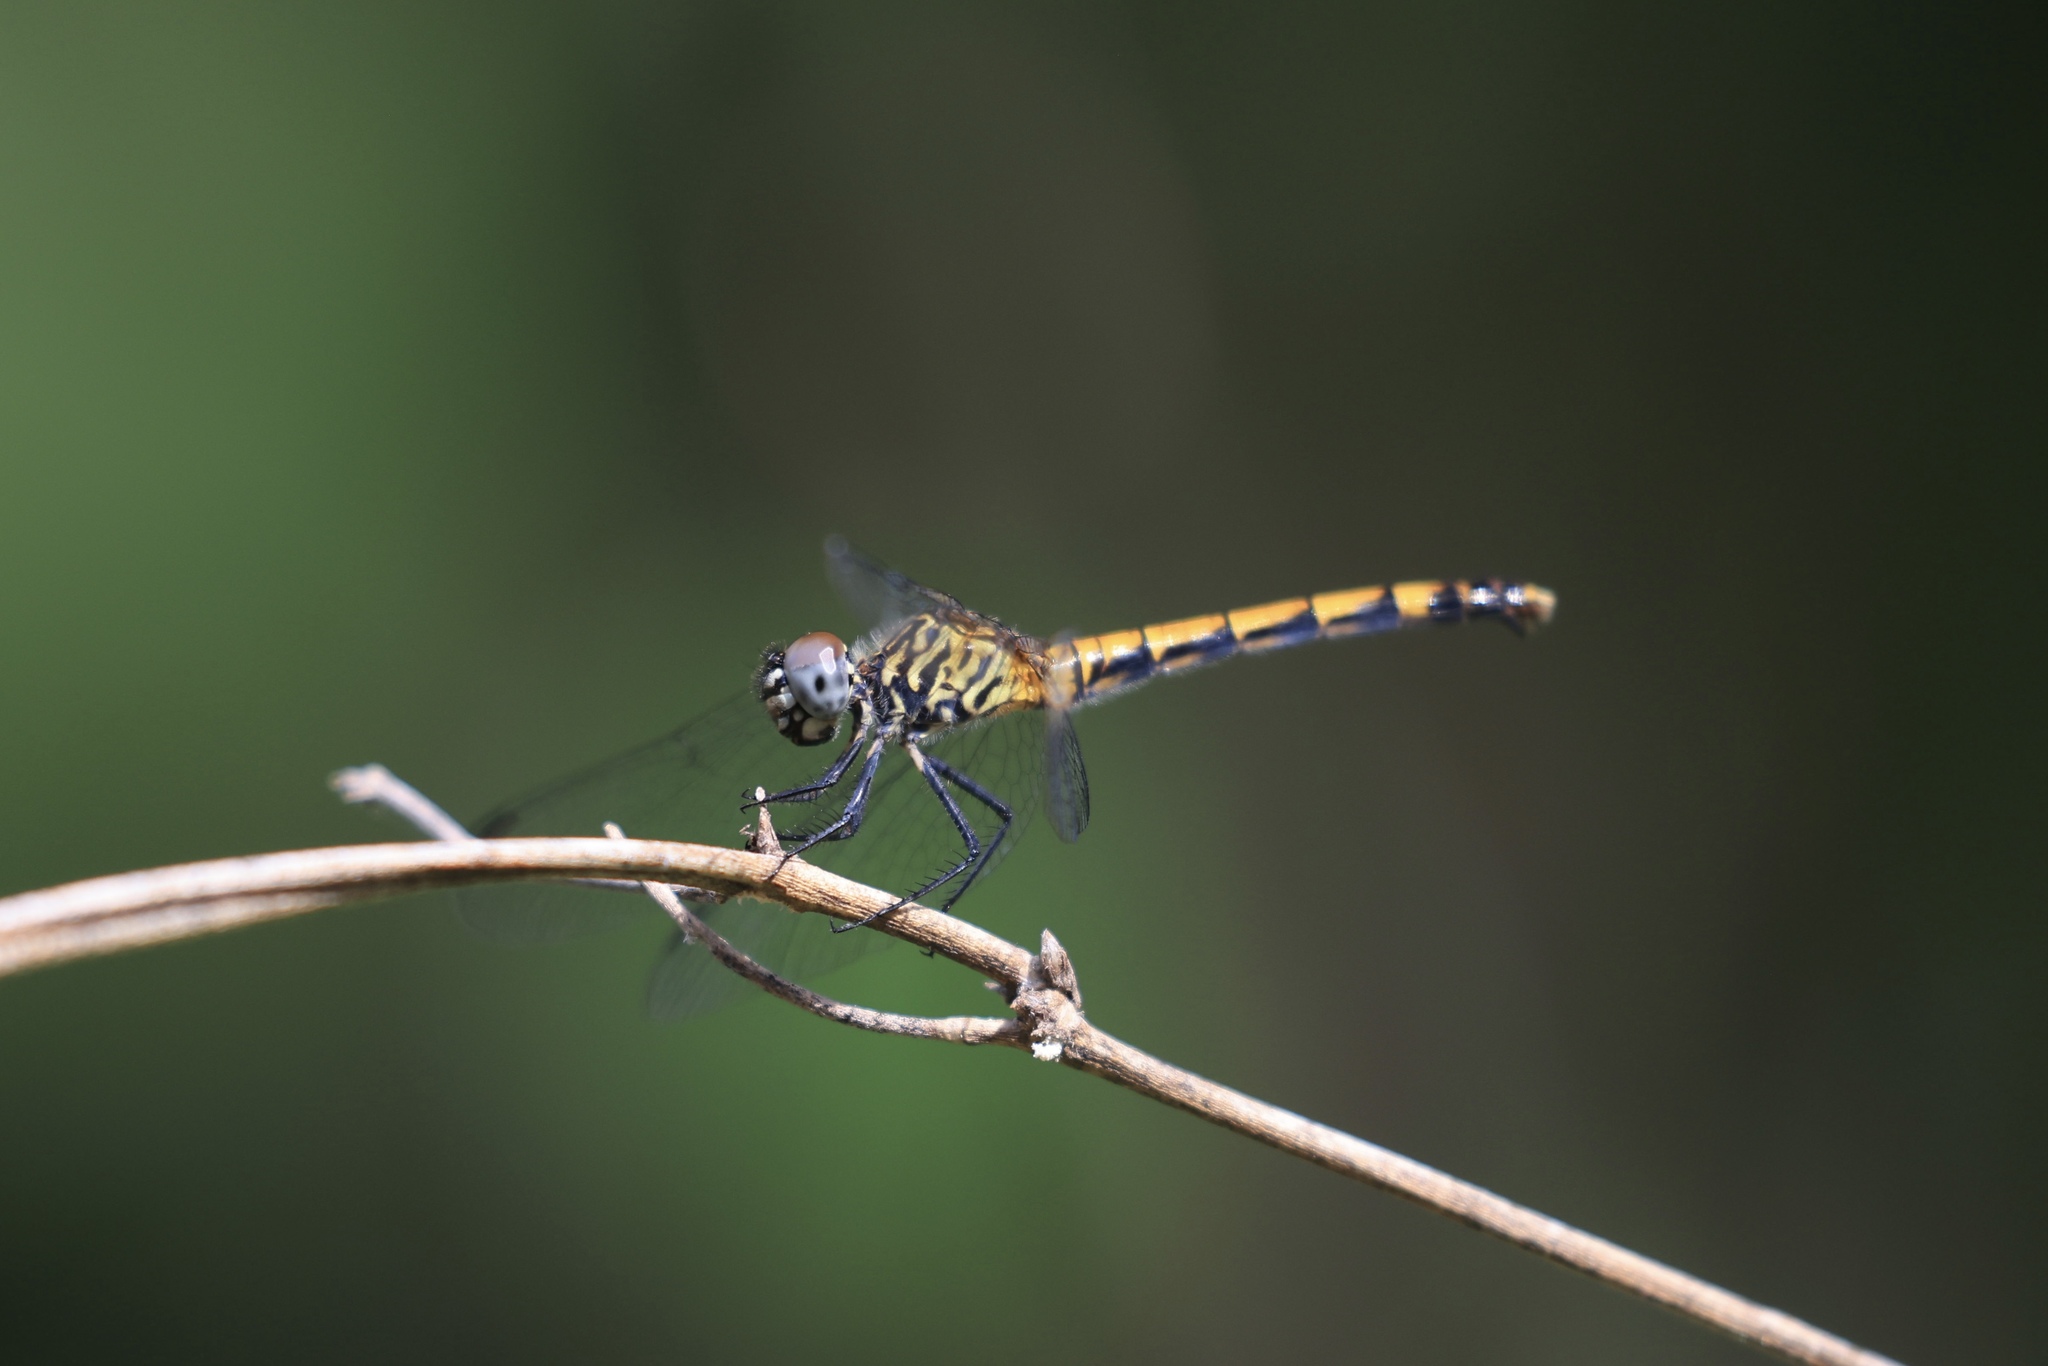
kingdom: Animalia
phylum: Arthropoda
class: Insecta
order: Odonata
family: Libellulidae
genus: Erythrodiplax
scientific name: Erythrodiplax berenice
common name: Seaside dragonlet
